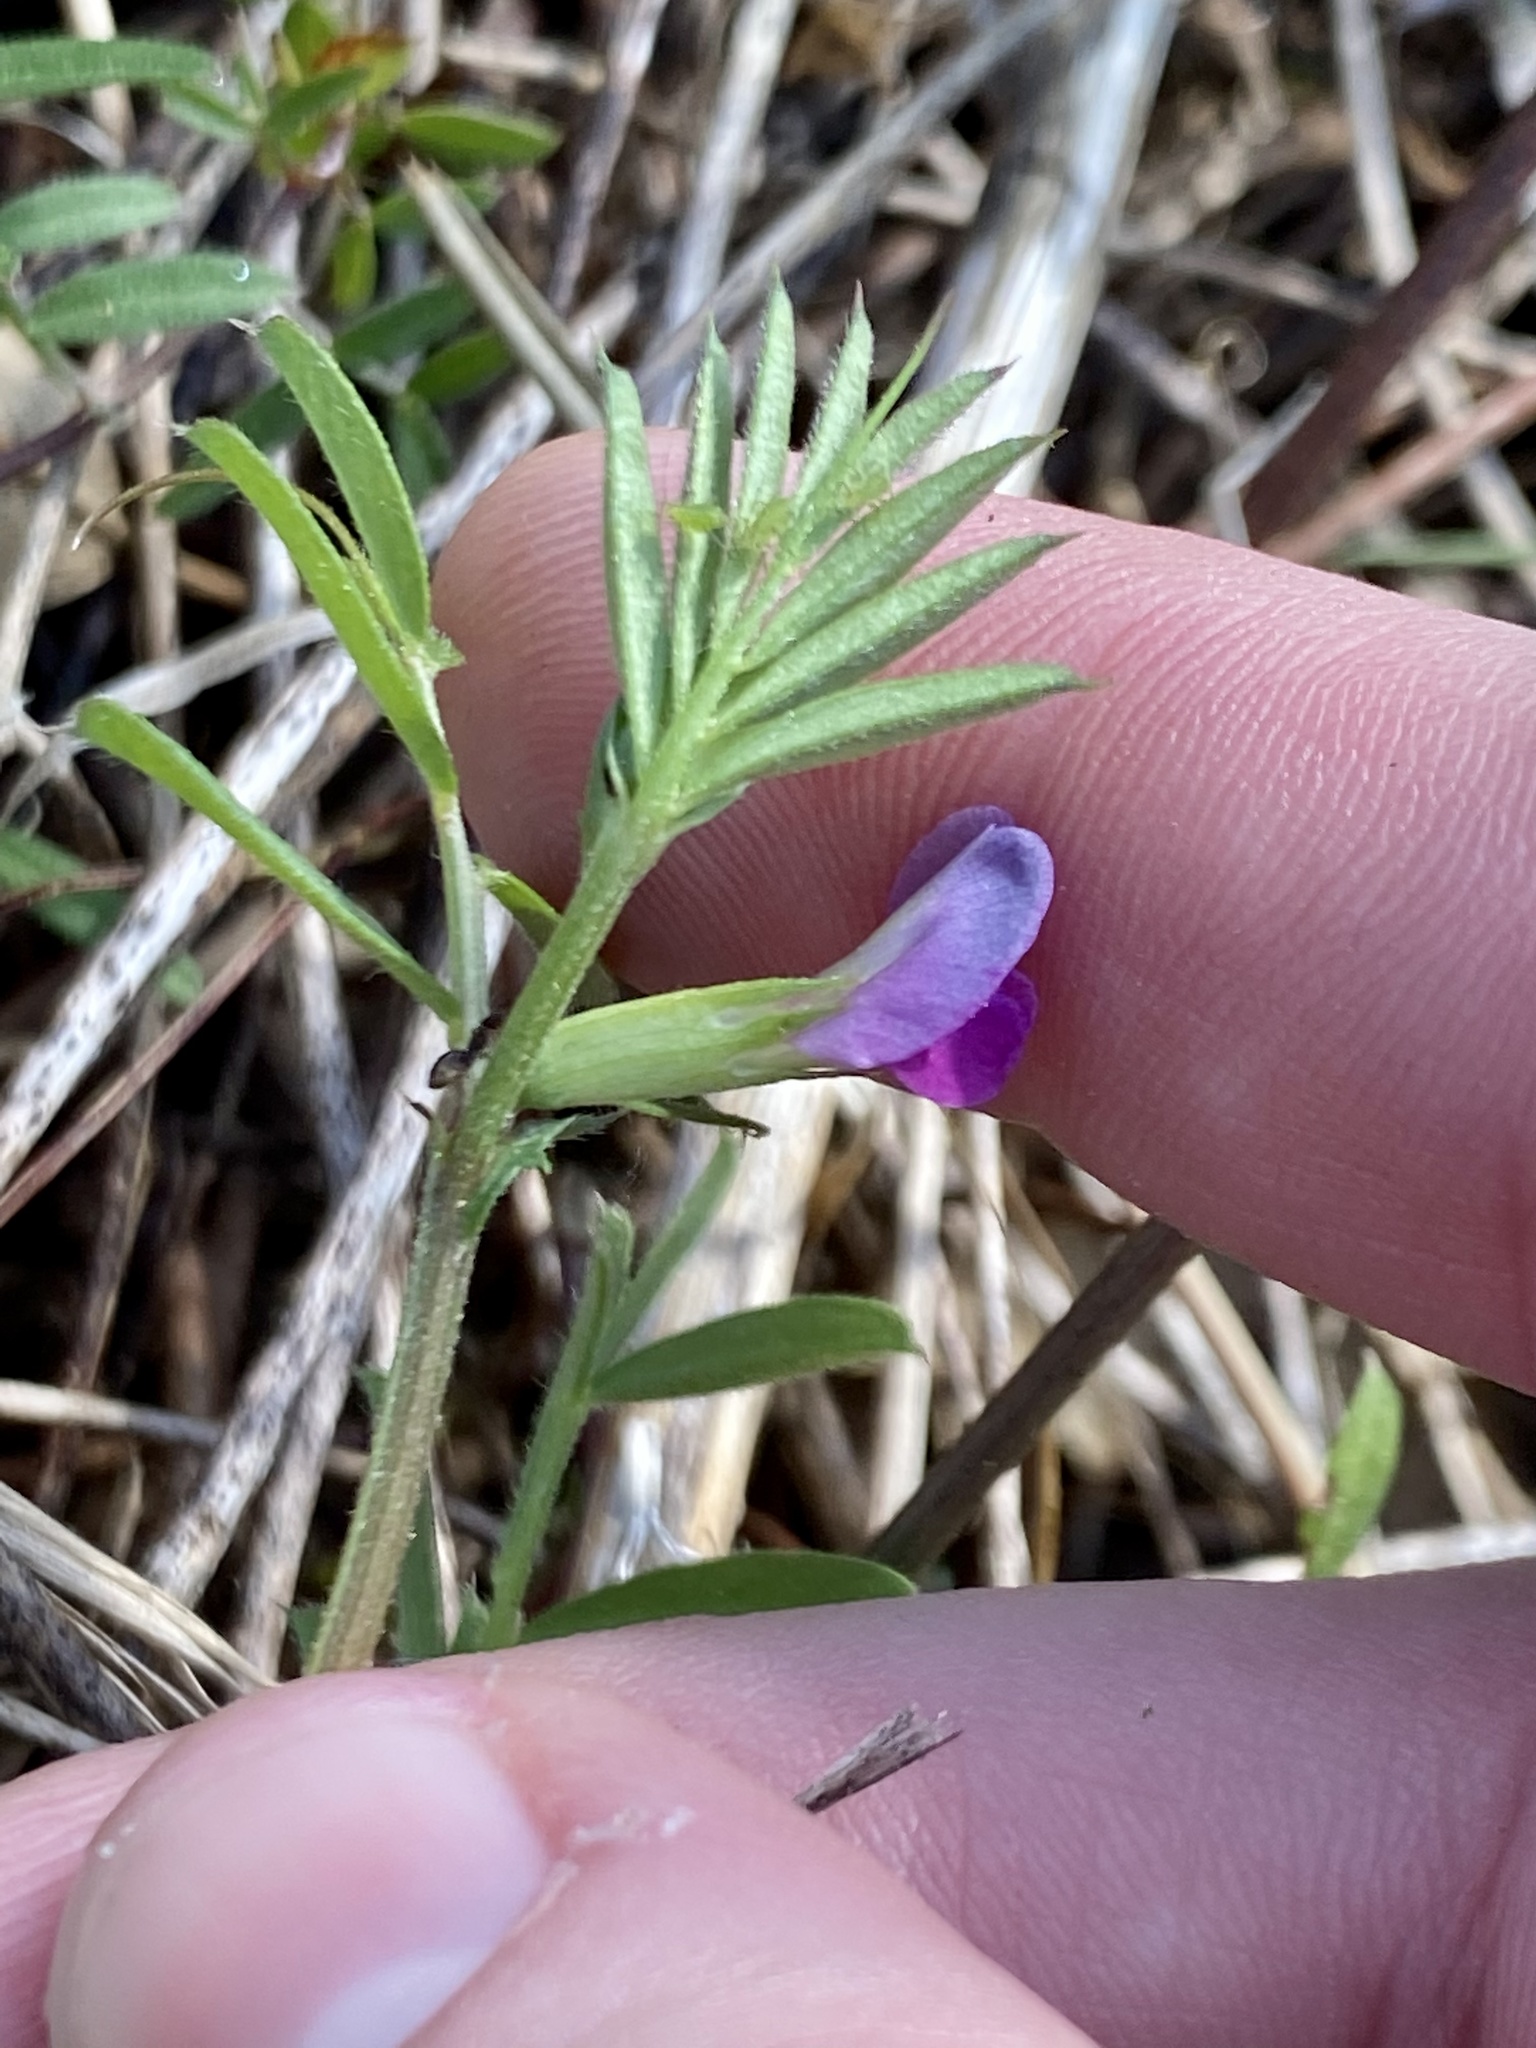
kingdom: Plantae
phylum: Tracheophyta
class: Magnoliopsida
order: Fabales
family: Fabaceae
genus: Vicia
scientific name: Vicia sativa
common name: Garden vetch
